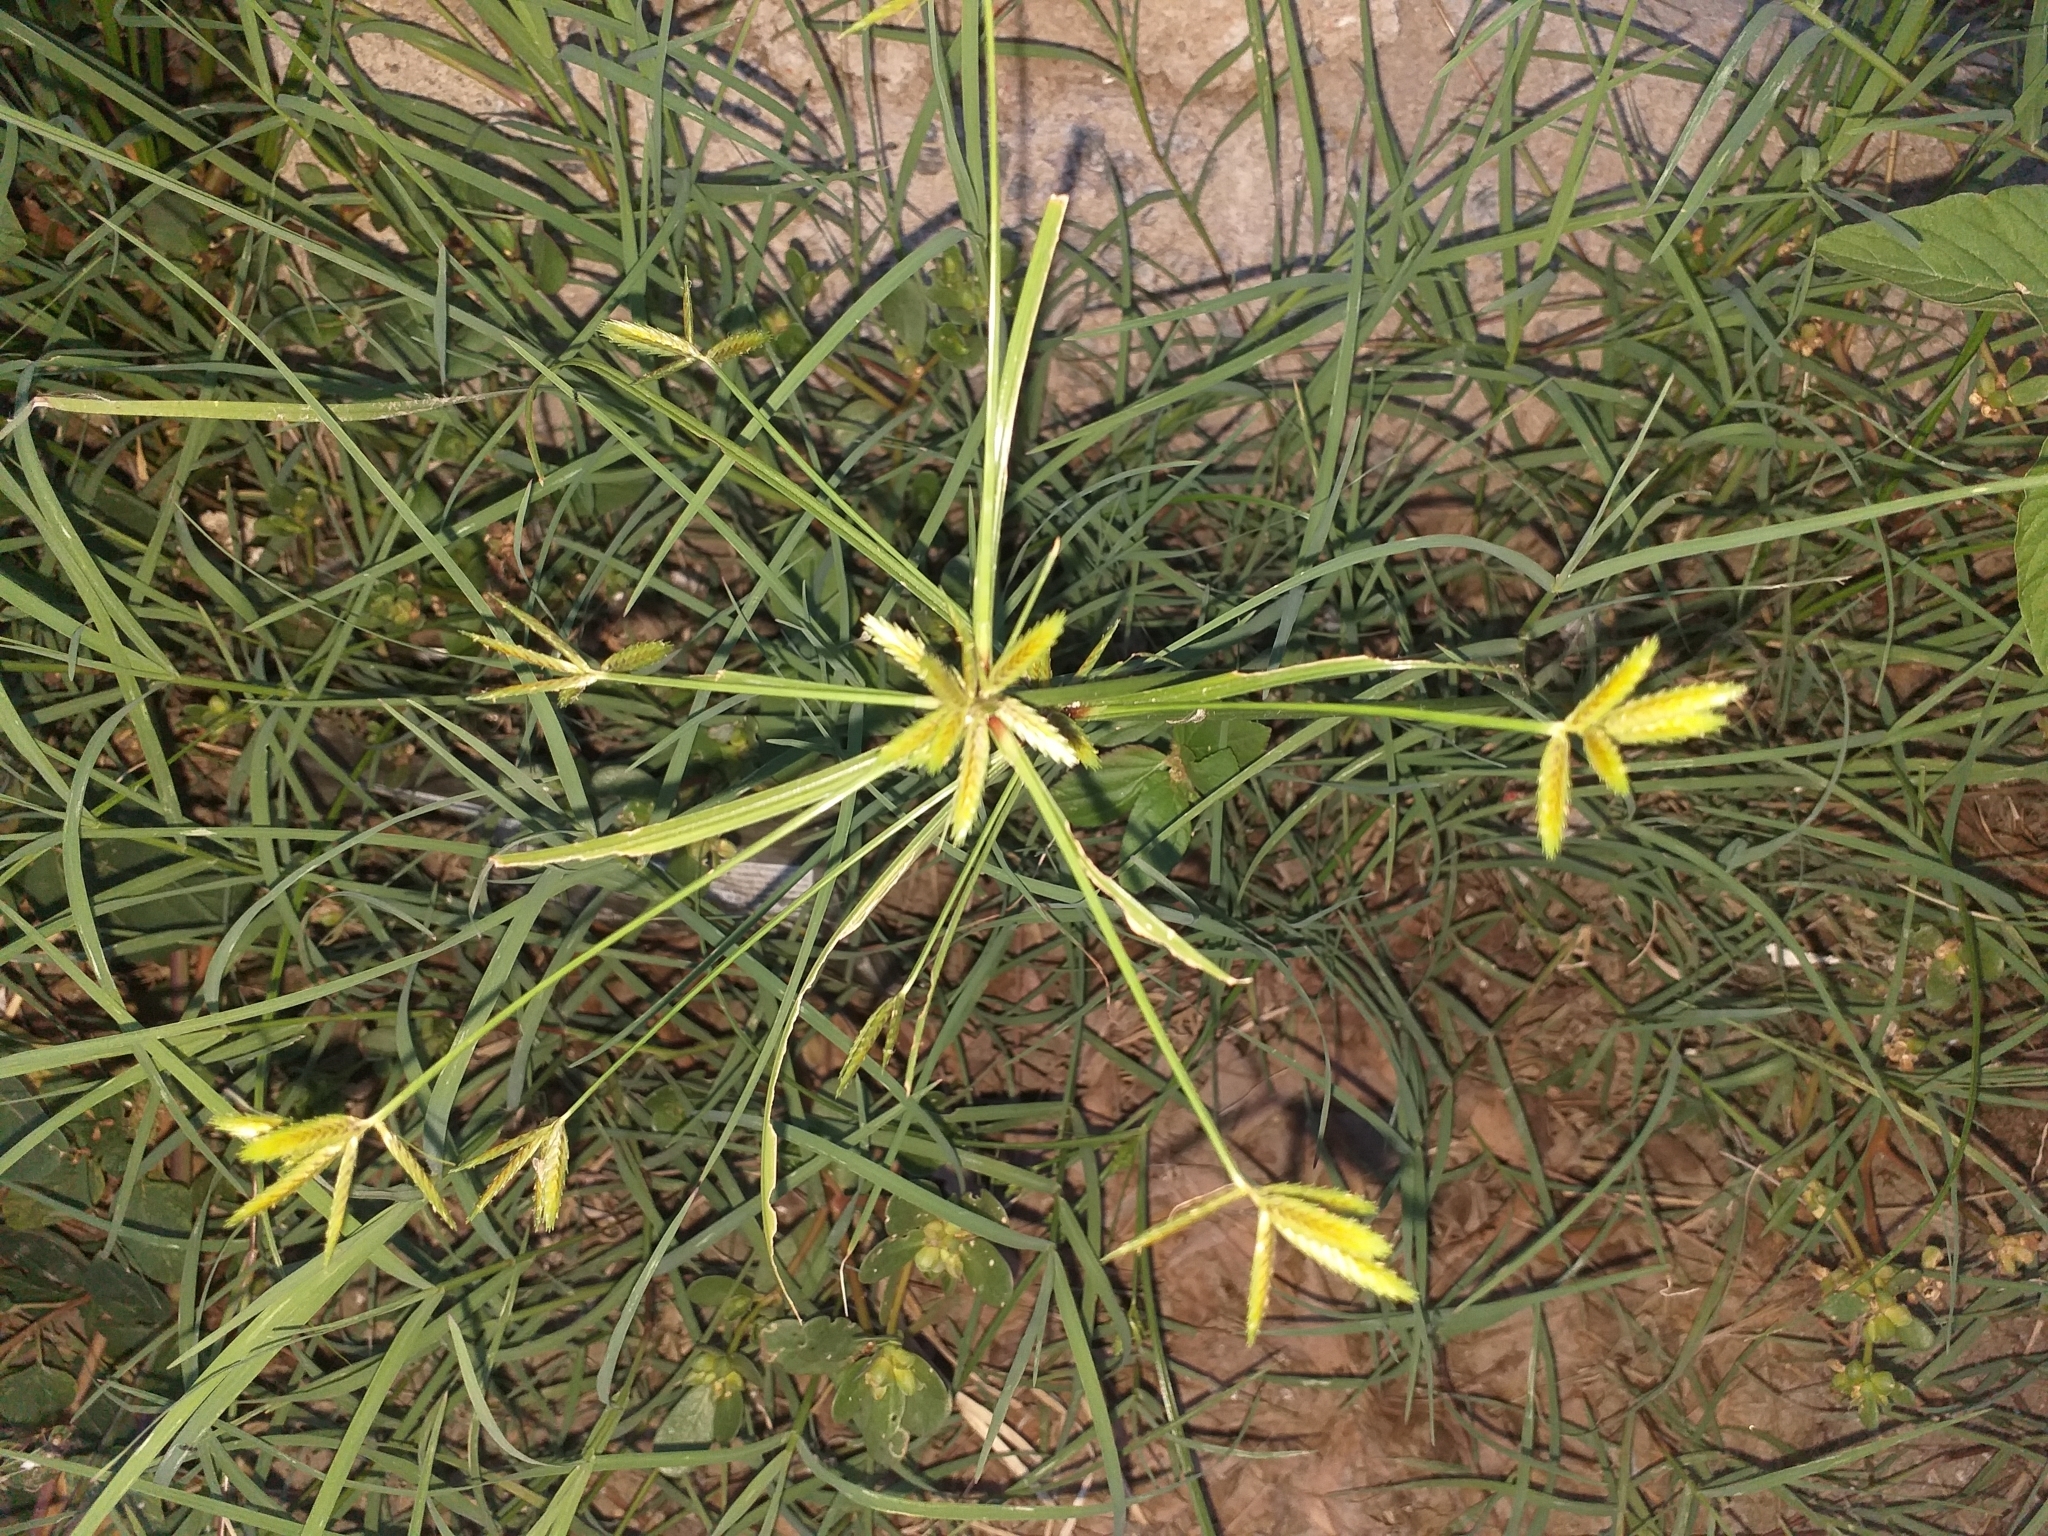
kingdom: Plantae
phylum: Tracheophyta
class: Liliopsida
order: Poales
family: Cyperaceae
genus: Cyperus
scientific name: Cyperus compressus
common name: Poorland flatsedge
